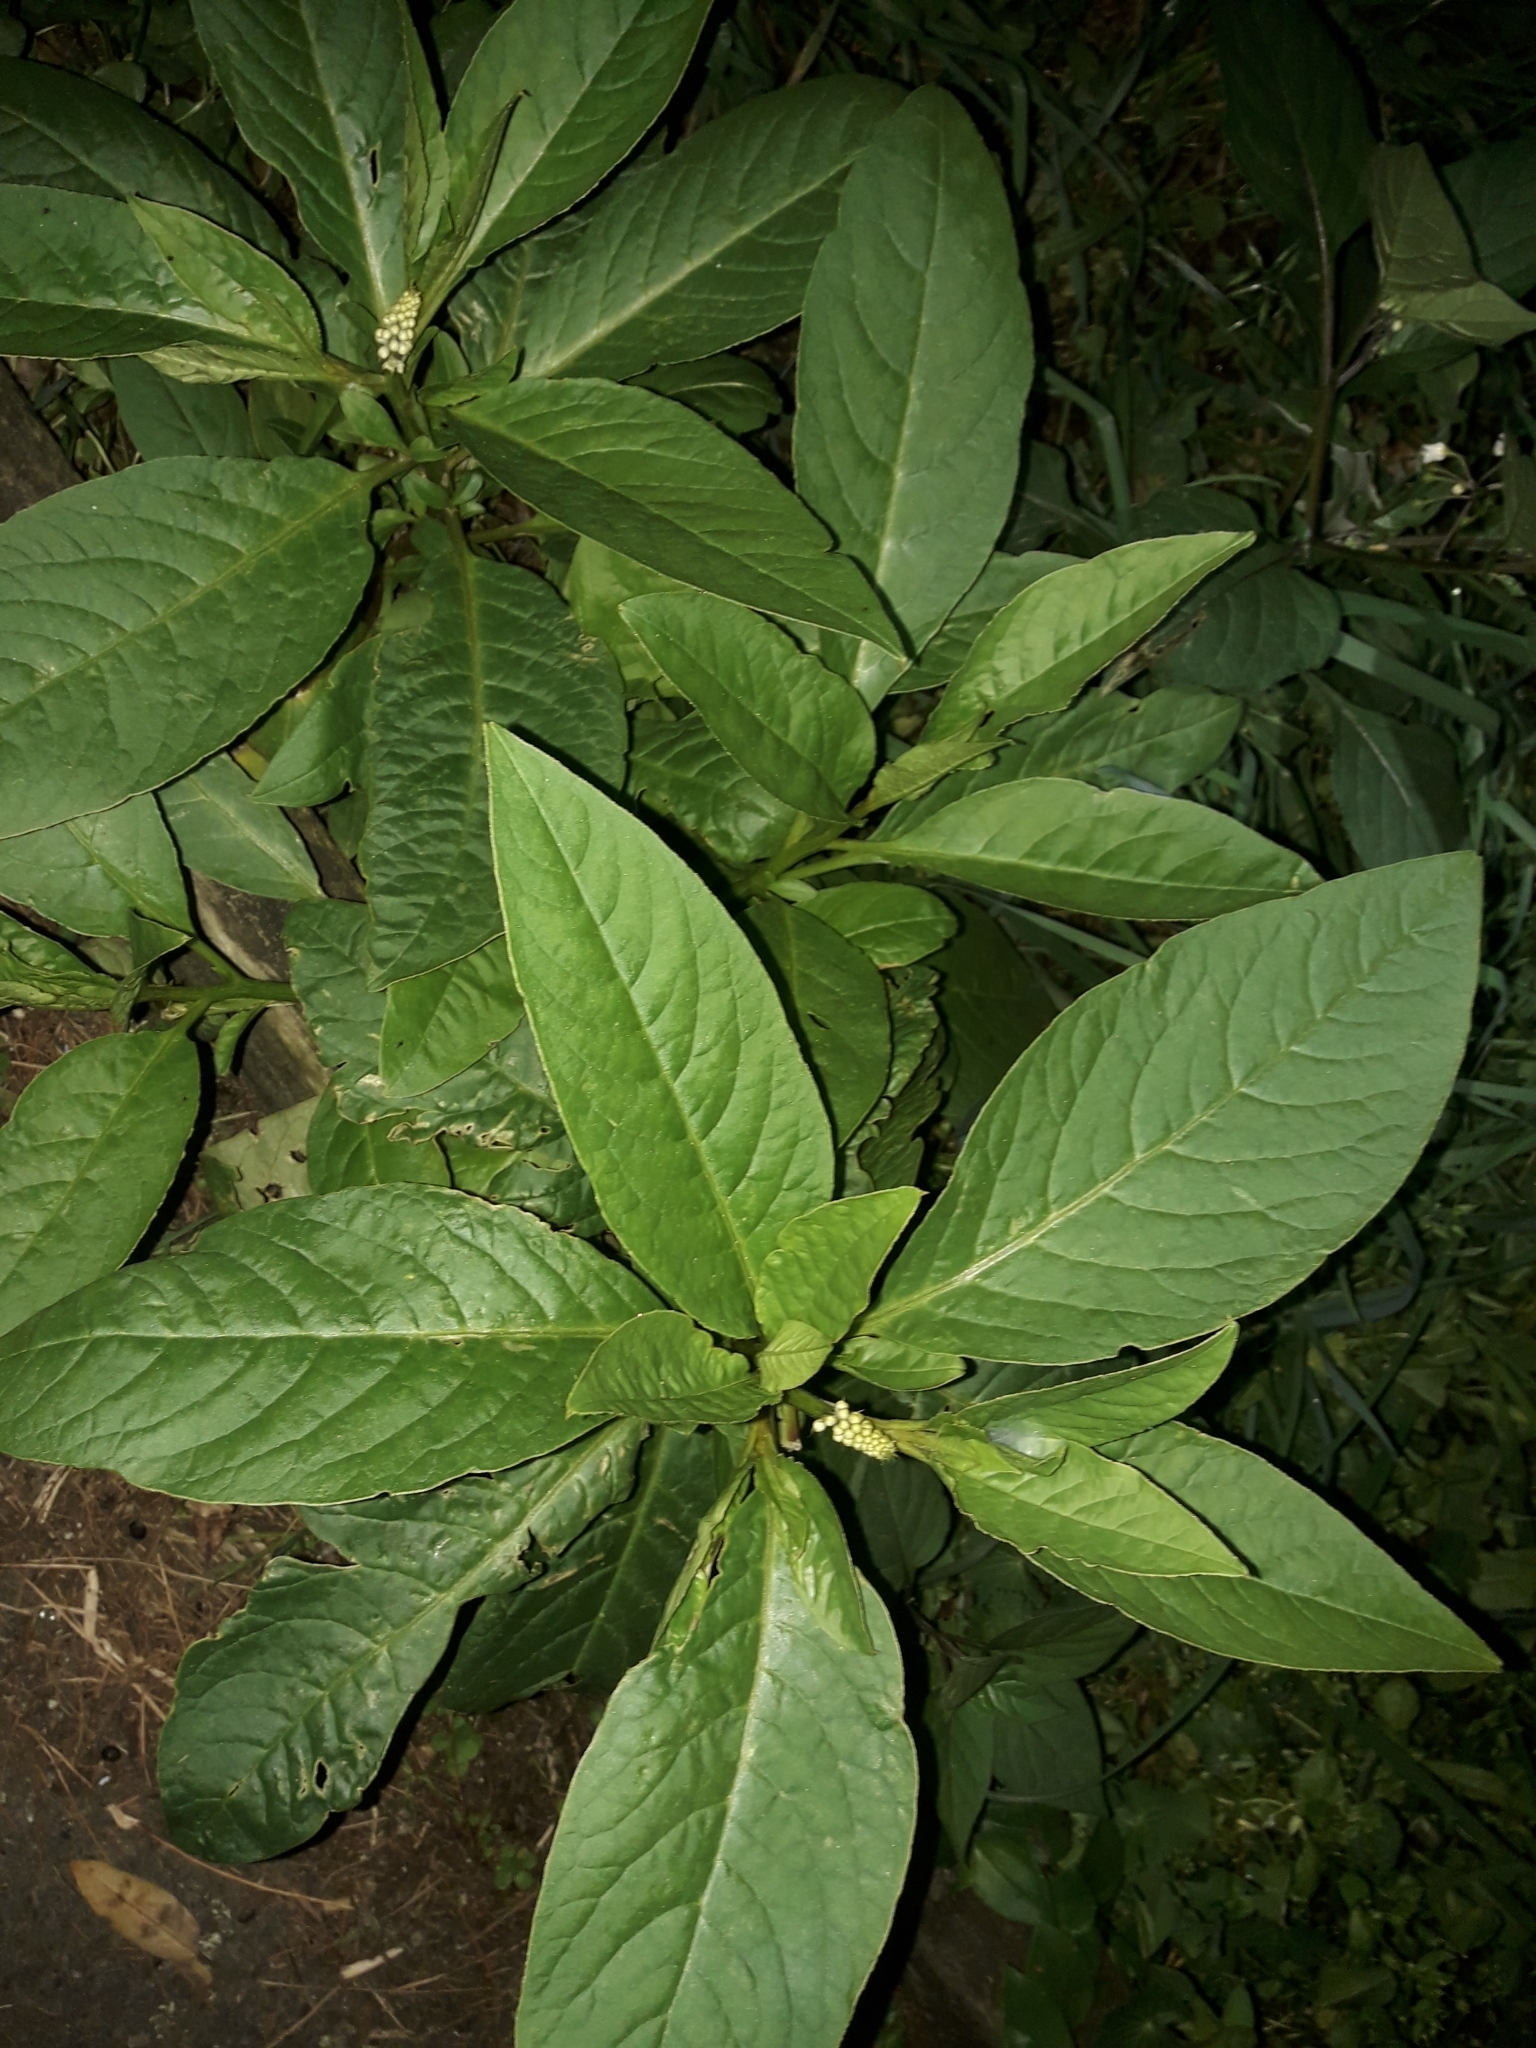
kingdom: Plantae
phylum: Tracheophyta
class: Magnoliopsida
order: Caryophyllales
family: Phytolaccaceae
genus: Phytolacca
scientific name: Phytolacca icosandra
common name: Button pokeweed
